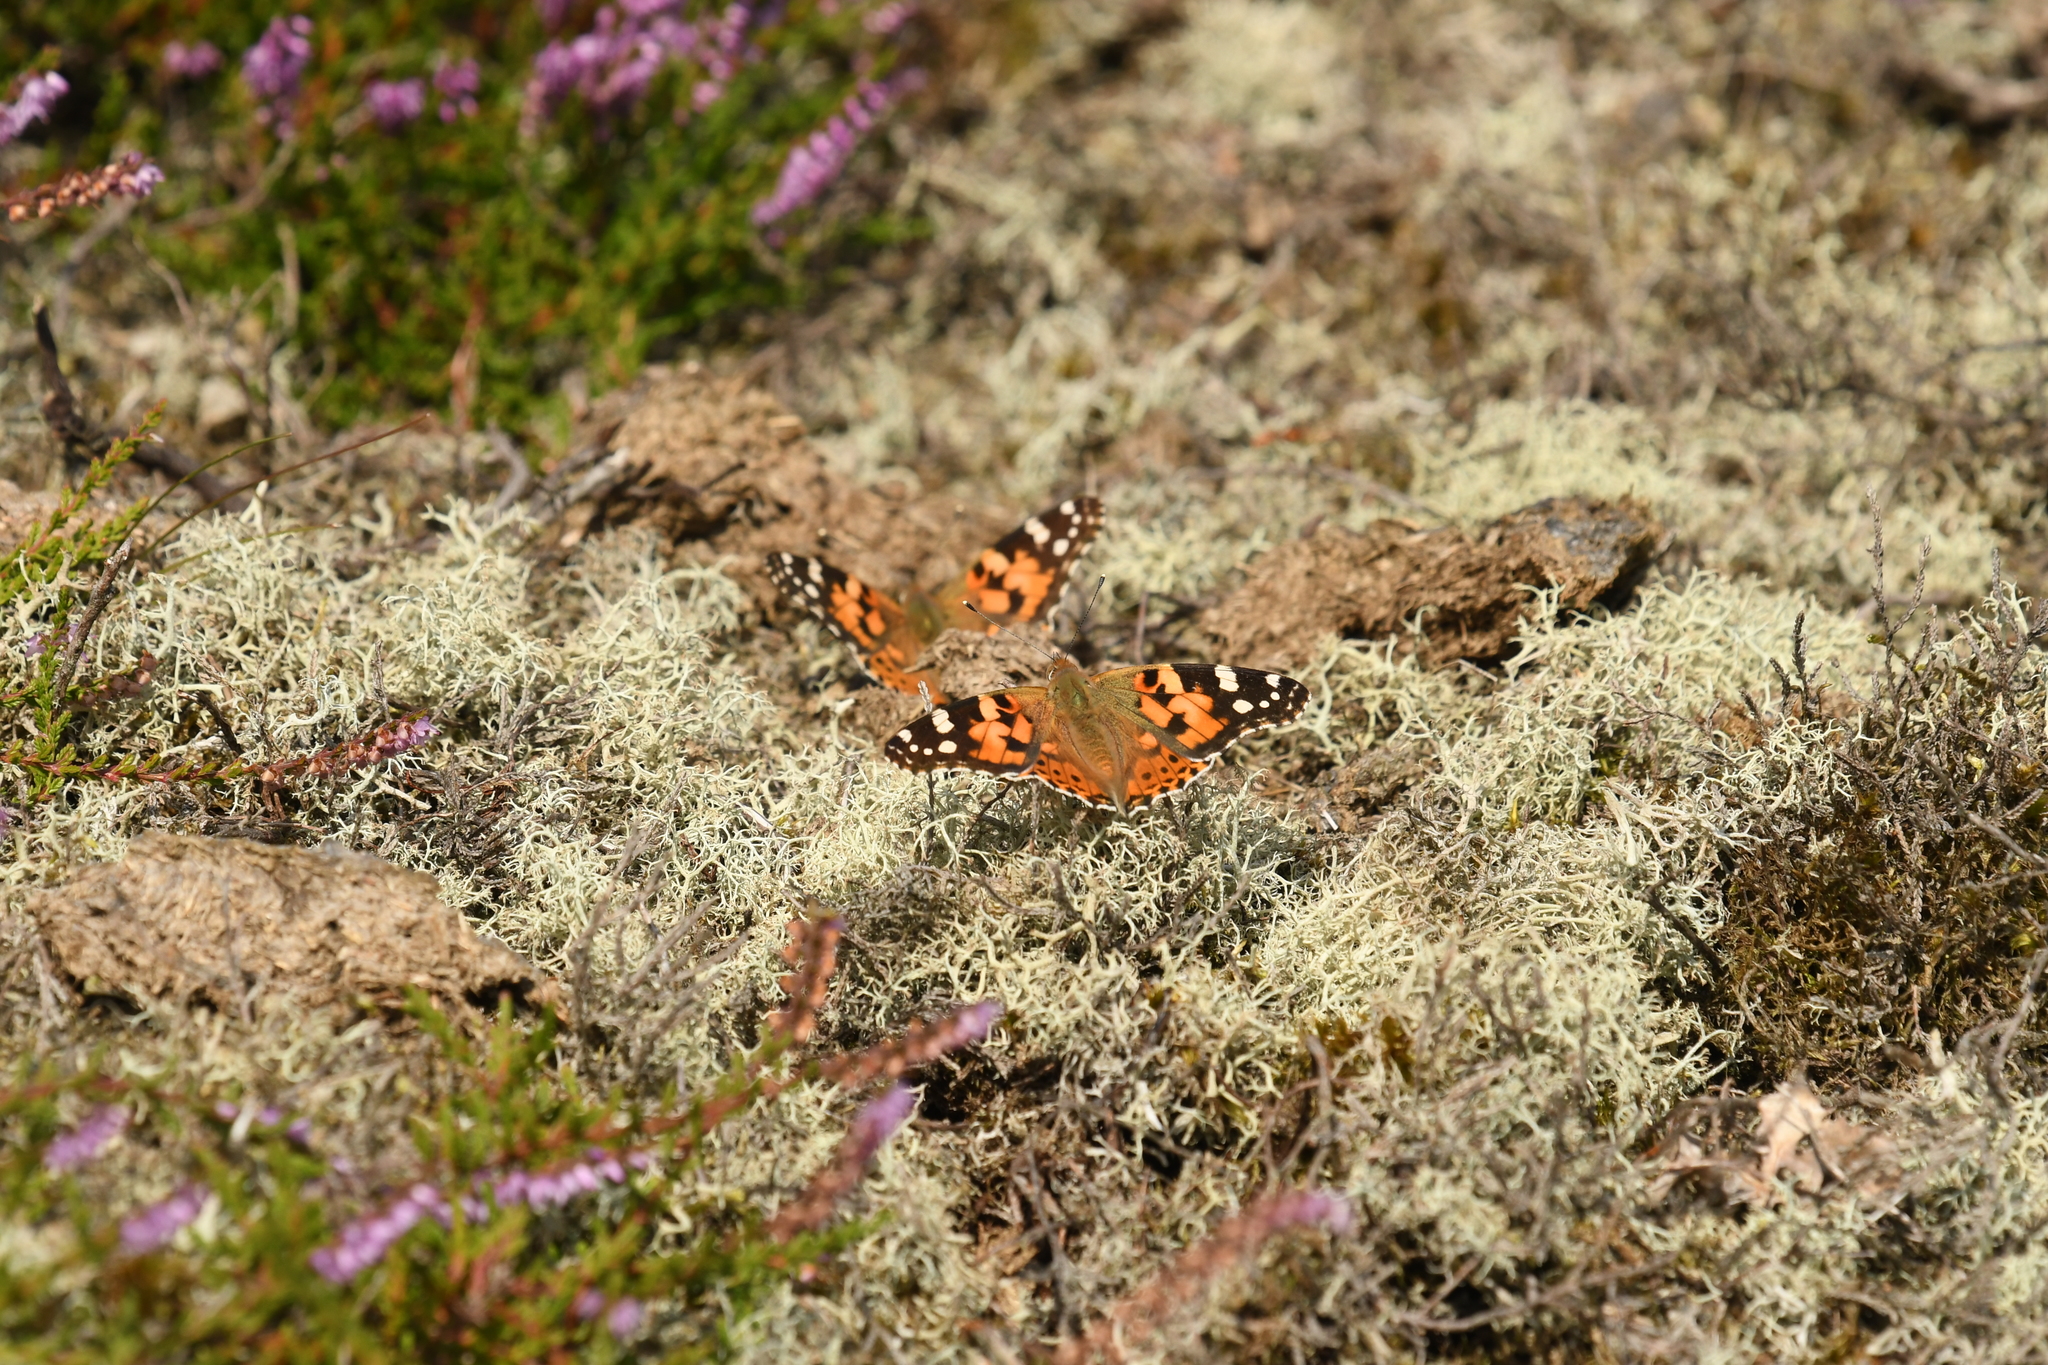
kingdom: Animalia
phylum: Arthropoda
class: Insecta
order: Lepidoptera
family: Nymphalidae
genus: Vanessa
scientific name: Vanessa cardui
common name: Painted lady
